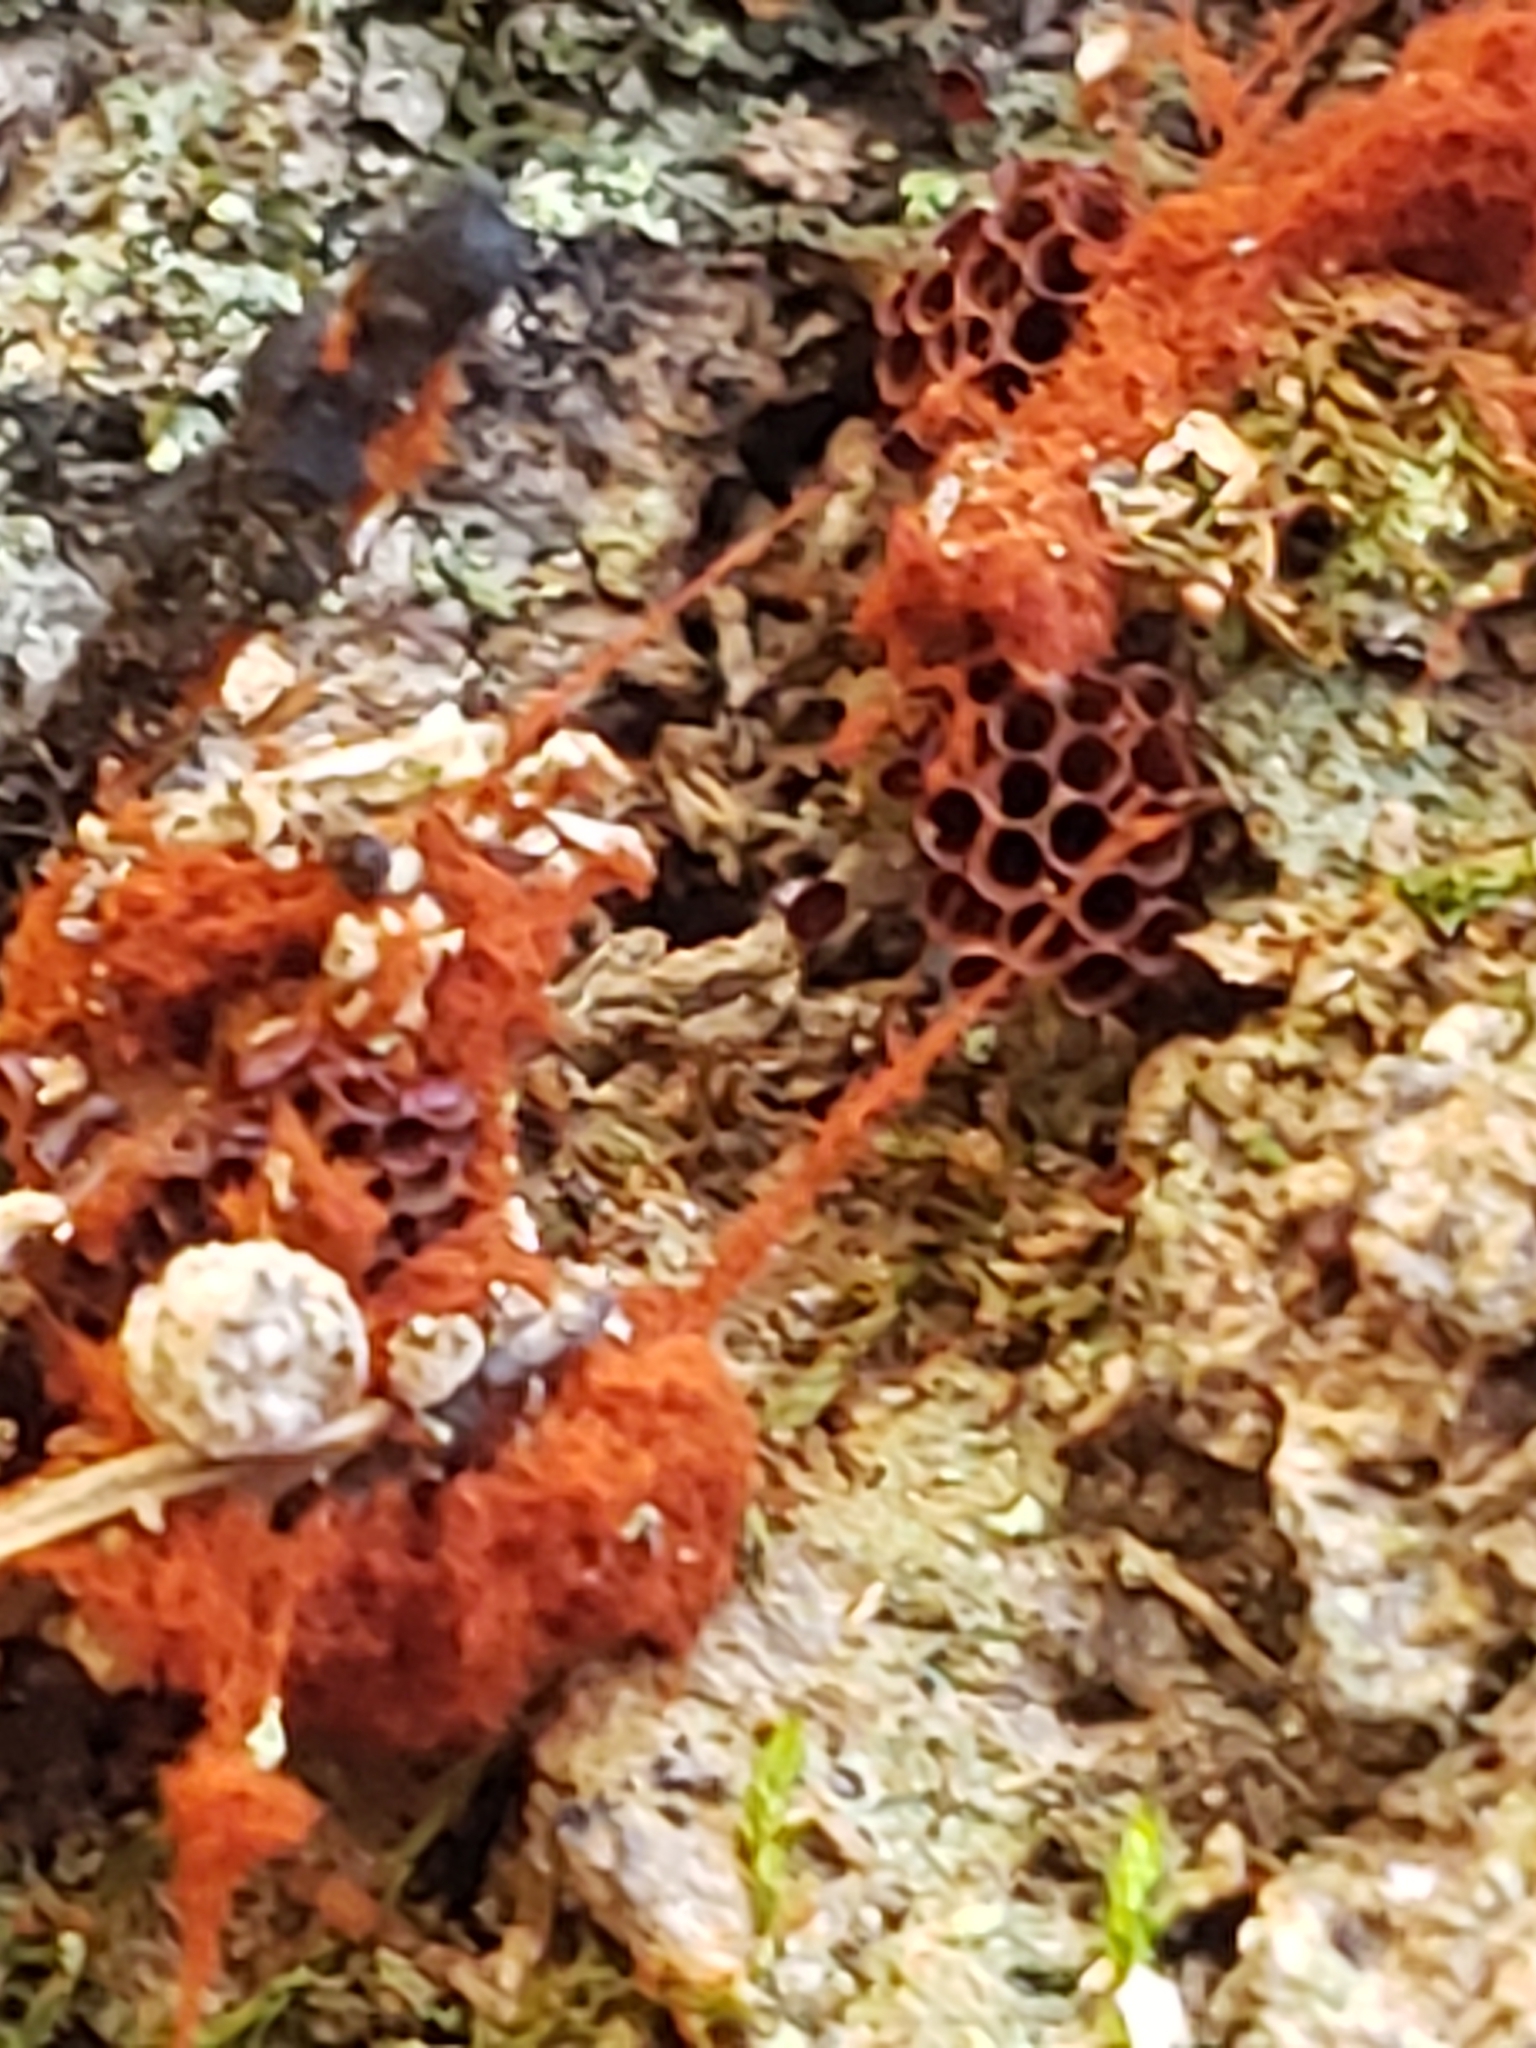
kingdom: Protozoa
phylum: Mycetozoa
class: Myxomycetes
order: Trichiales
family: Trichiaceae
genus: Metatrichia
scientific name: Metatrichia vesparia
